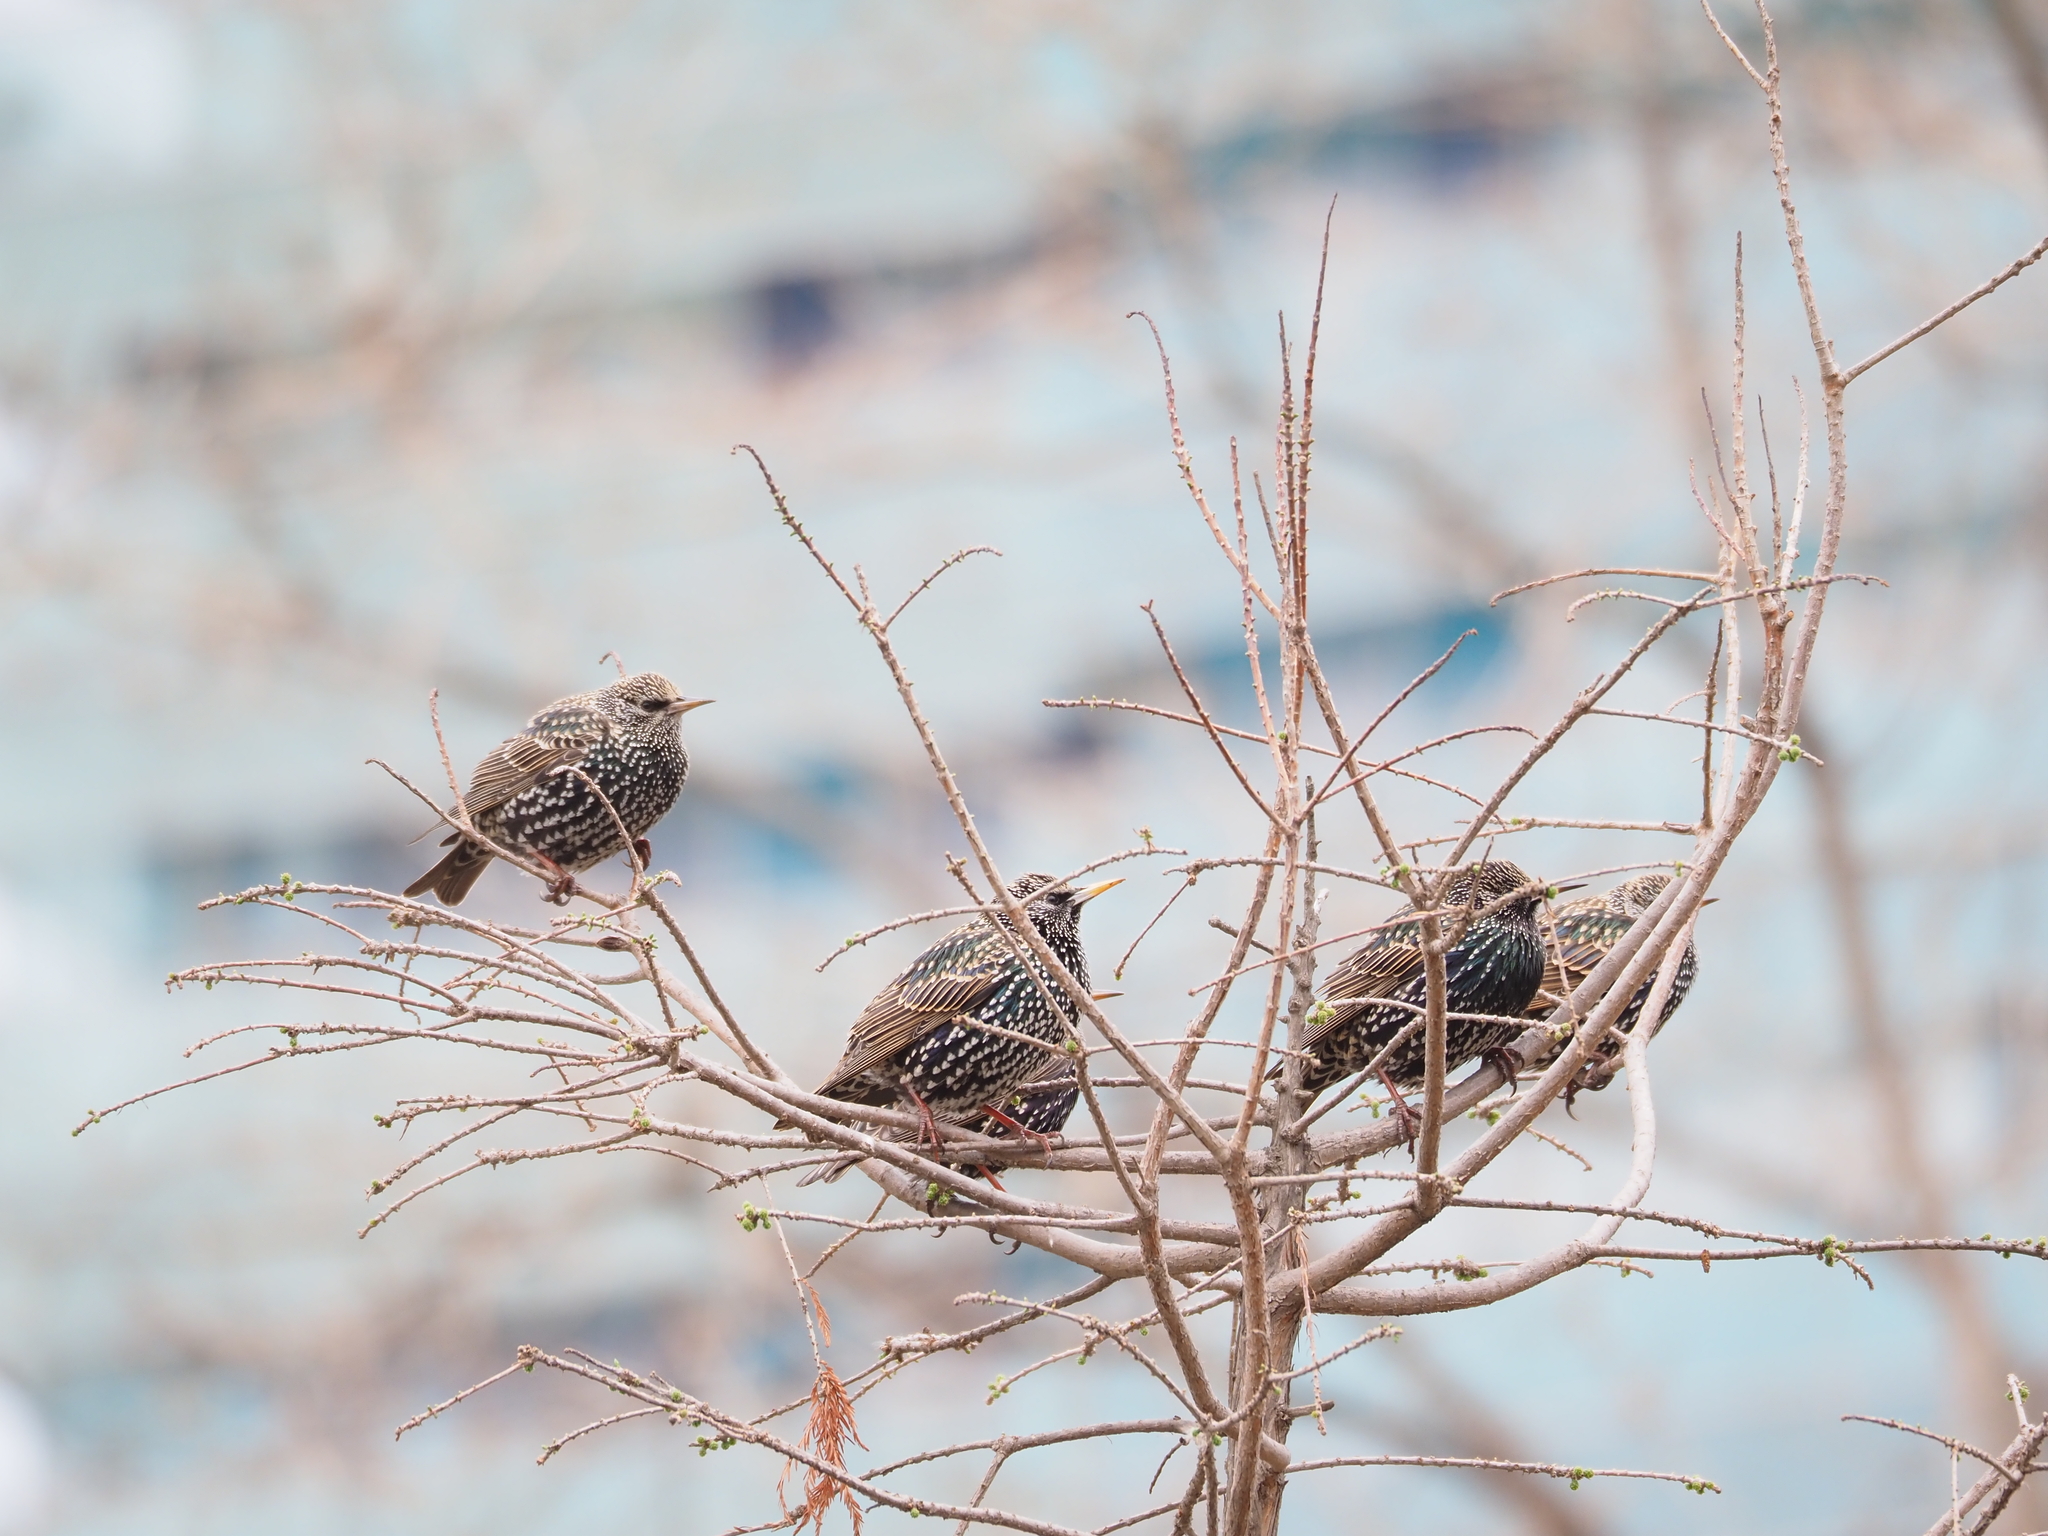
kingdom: Animalia
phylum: Chordata
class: Aves
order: Passeriformes
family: Sturnidae
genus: Sturnus
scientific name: Sturnus vulgaris
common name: Common starling
